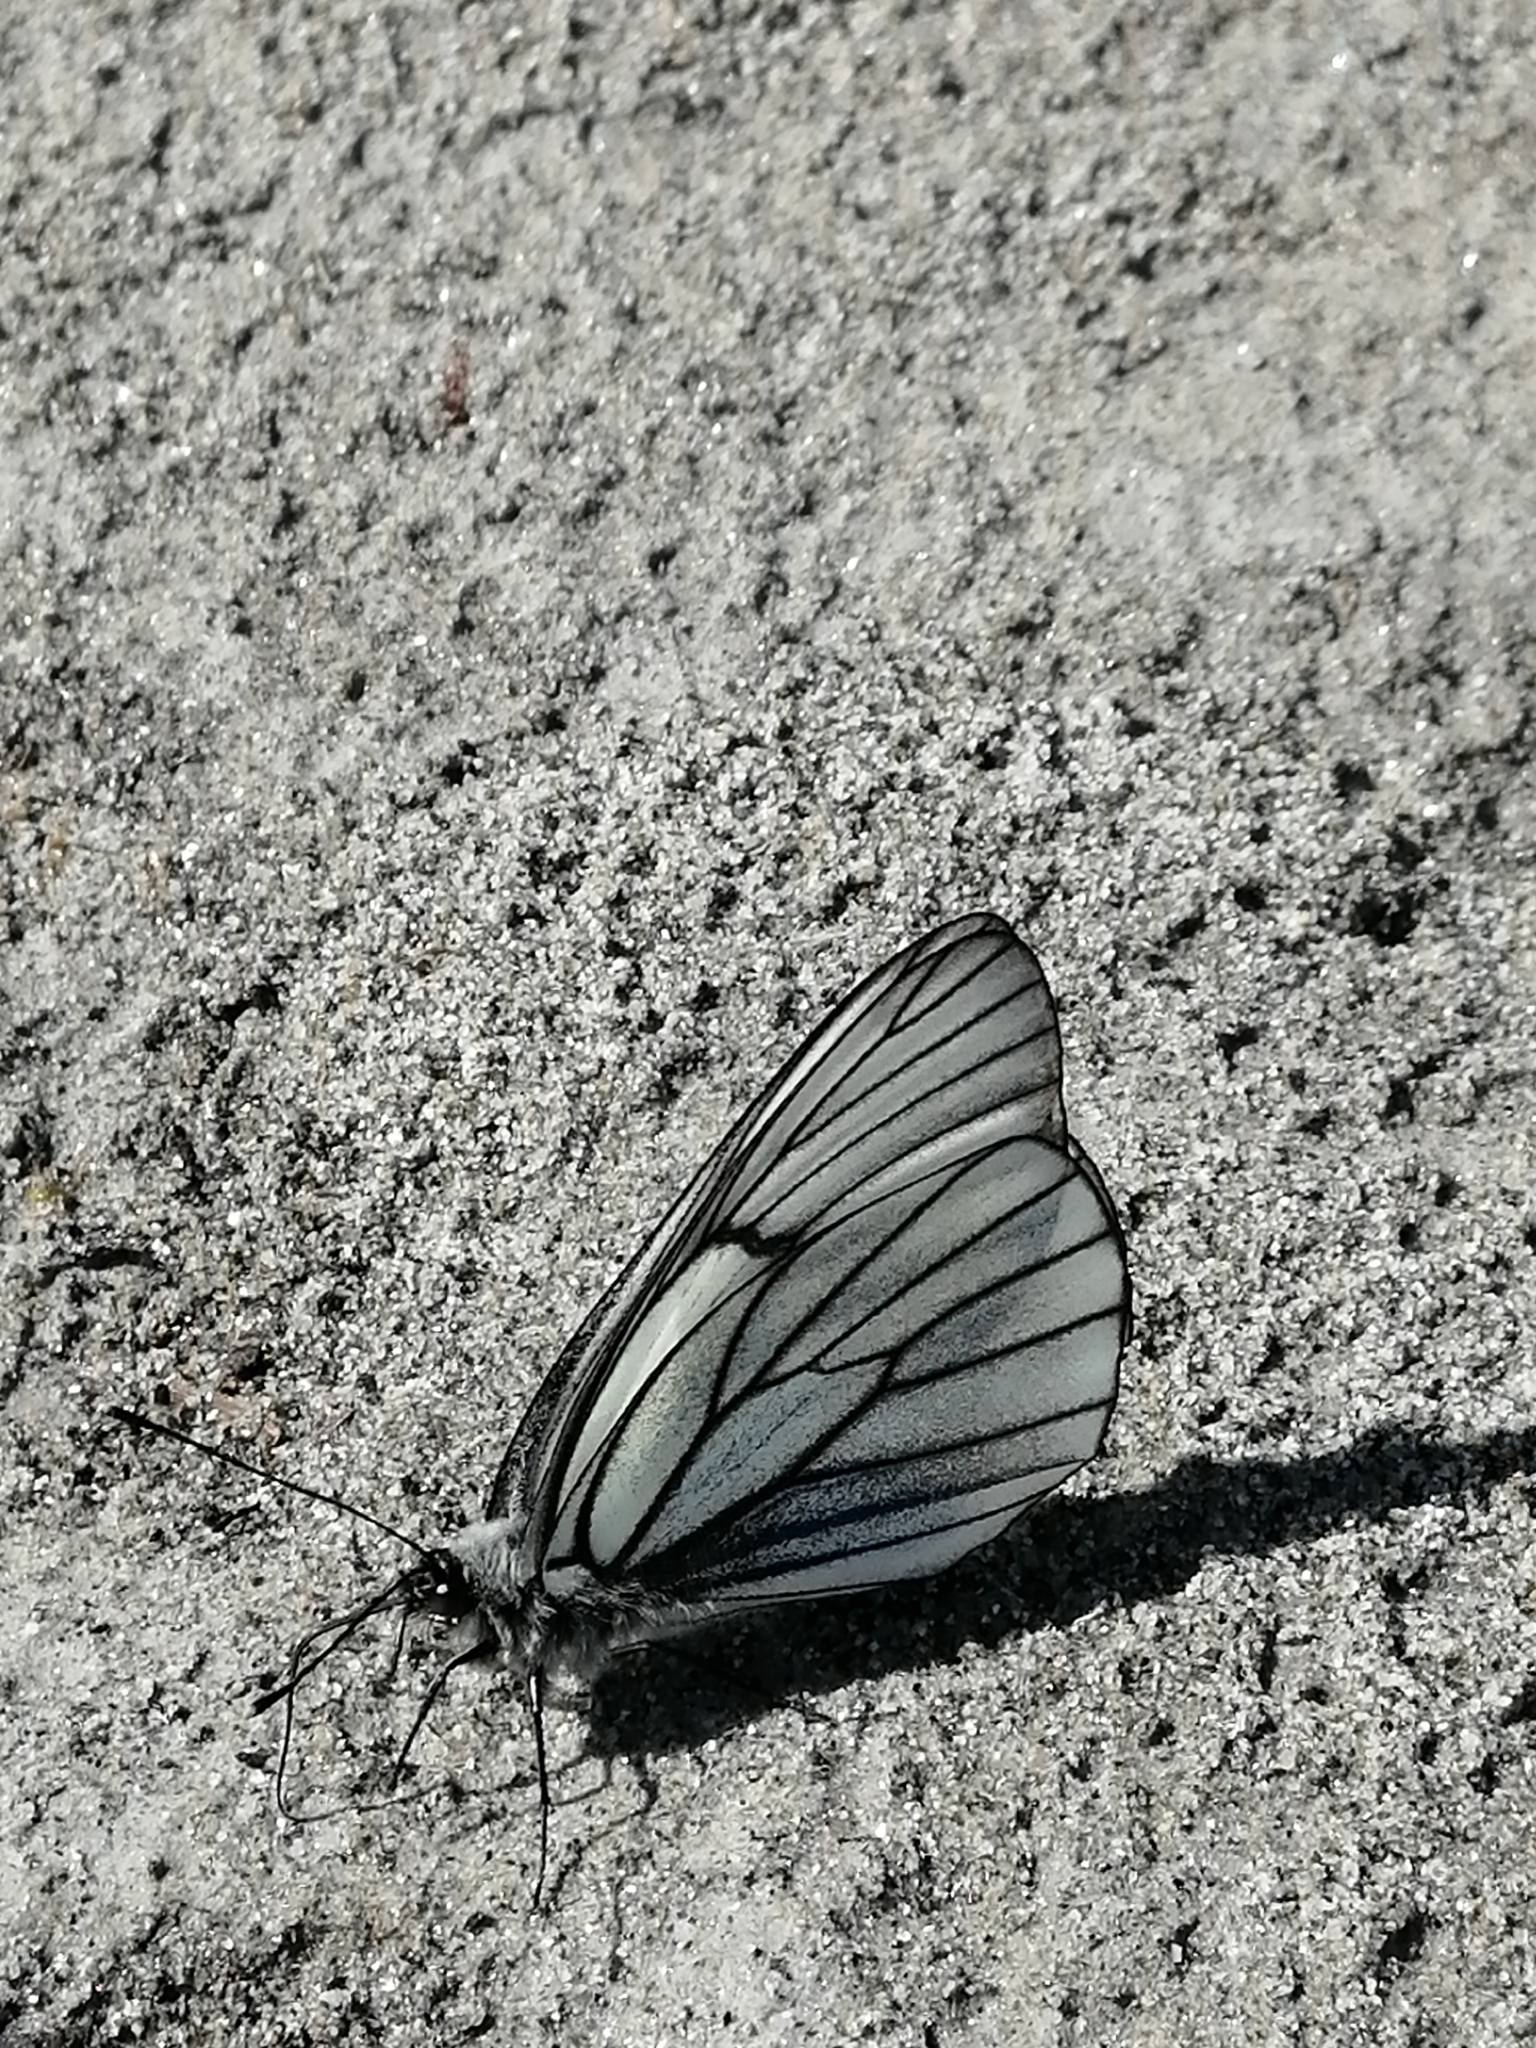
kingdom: Animalia
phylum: Arthropoda
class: Insecta
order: Lepidoptera
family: Pieridae
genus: Aporia
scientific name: Aporia crataegi
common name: Black-veined white
